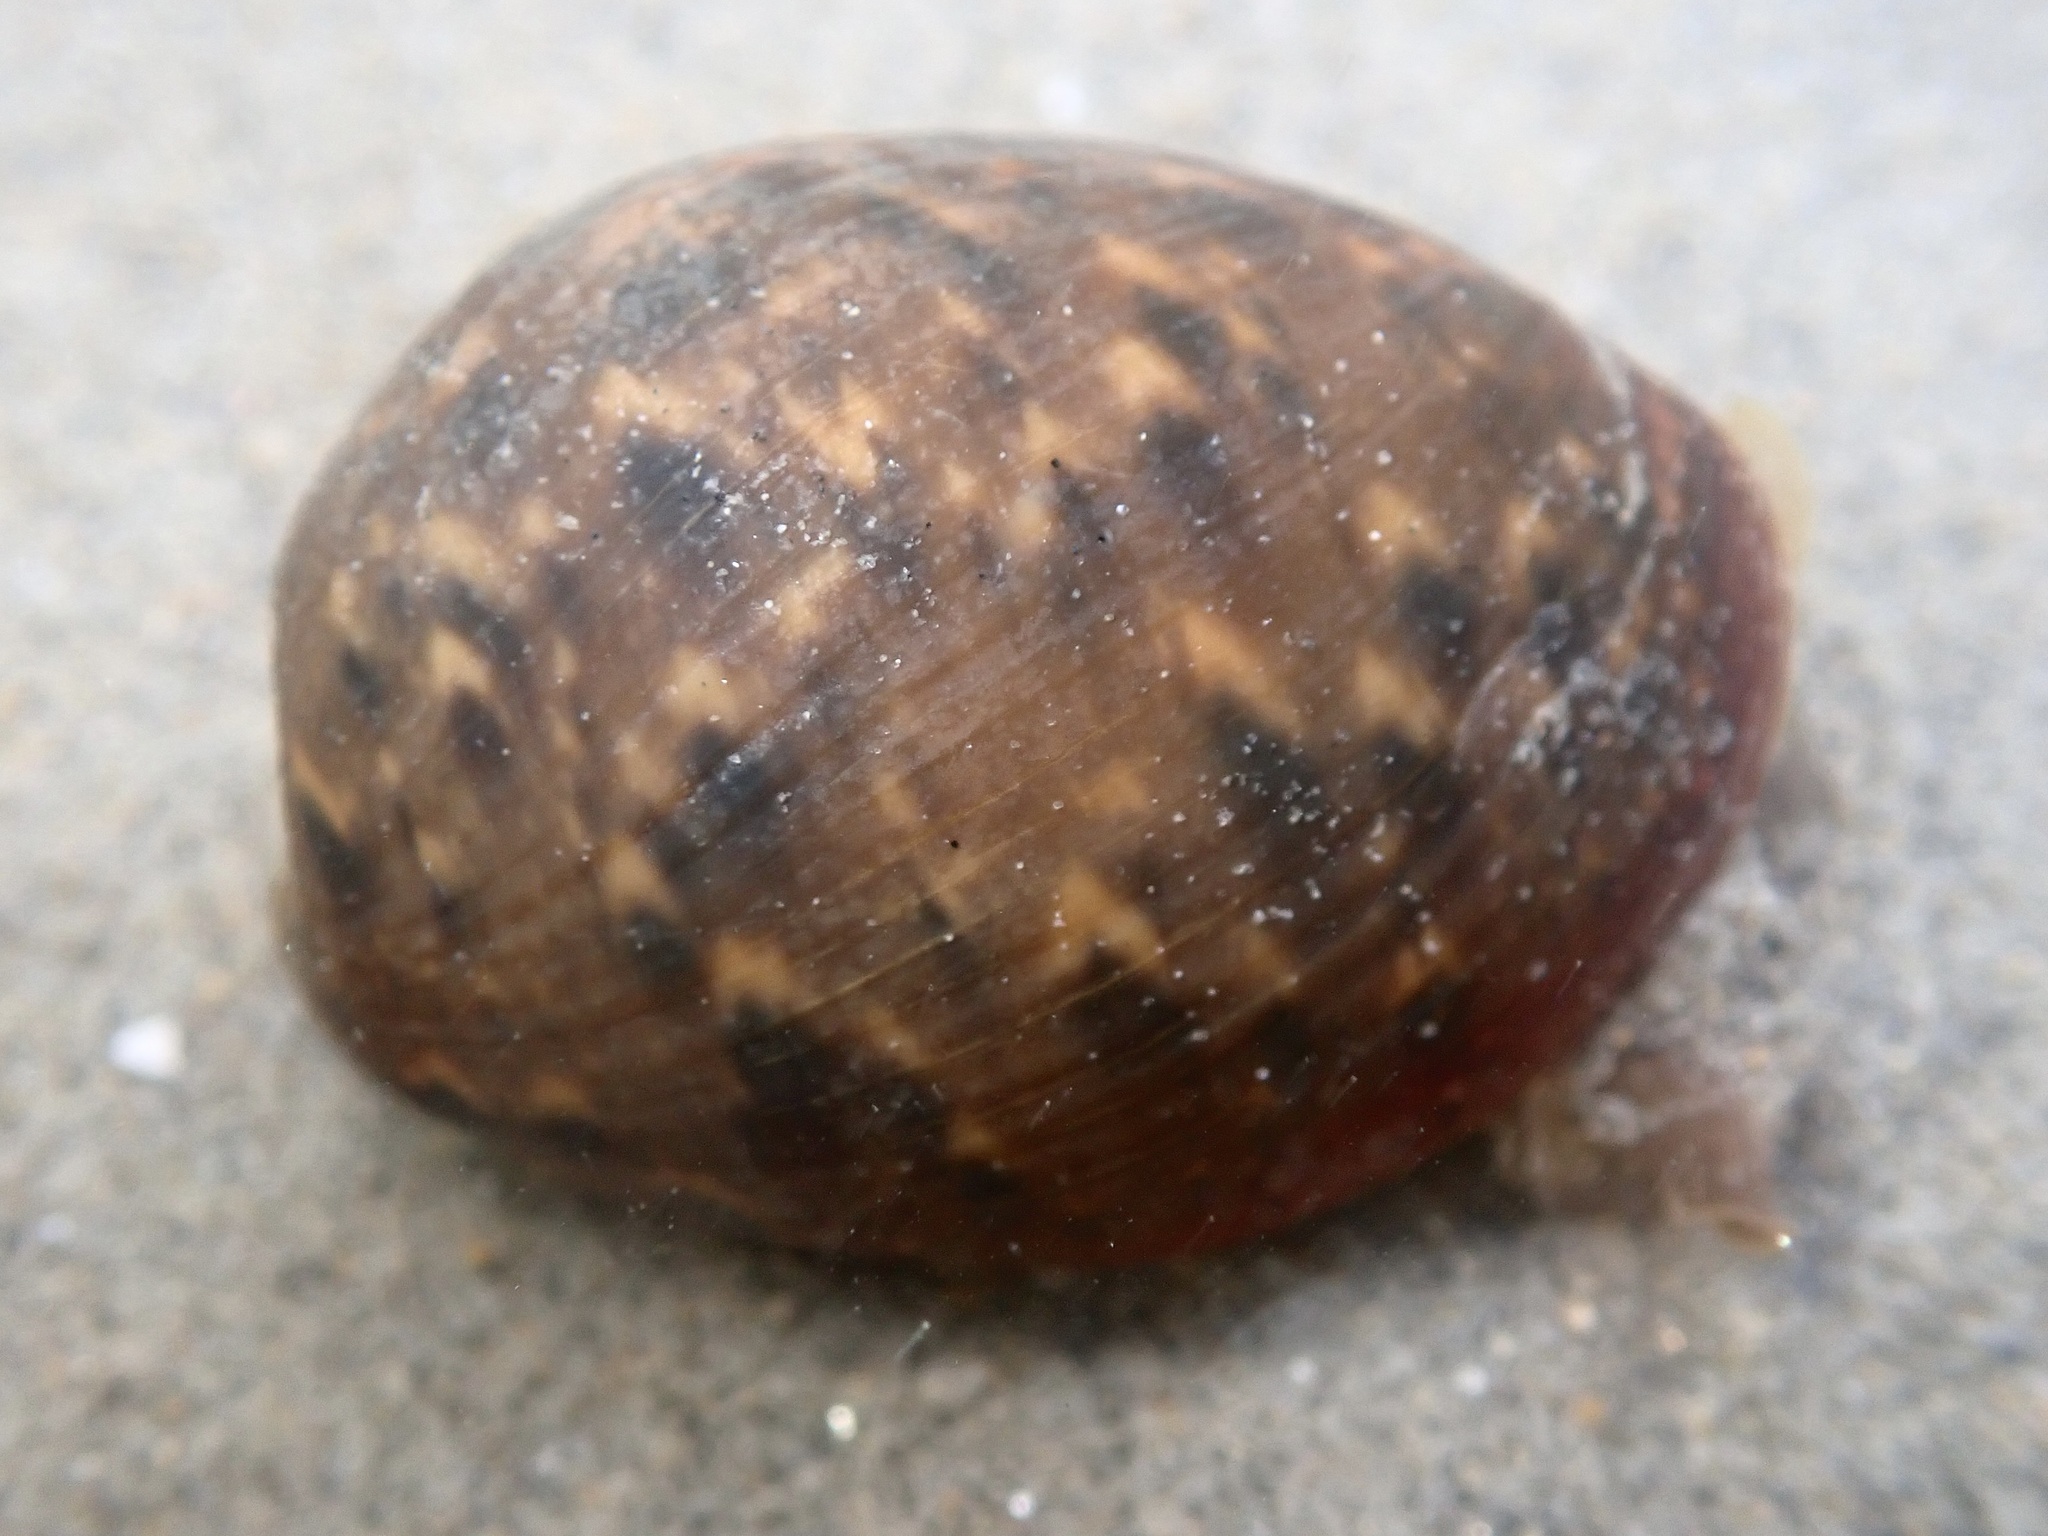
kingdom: Animalia
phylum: Mollusca
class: Gastropoda
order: Cephalaspidea
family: Bullidae
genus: Bulla
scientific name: Bulla gouldiana
